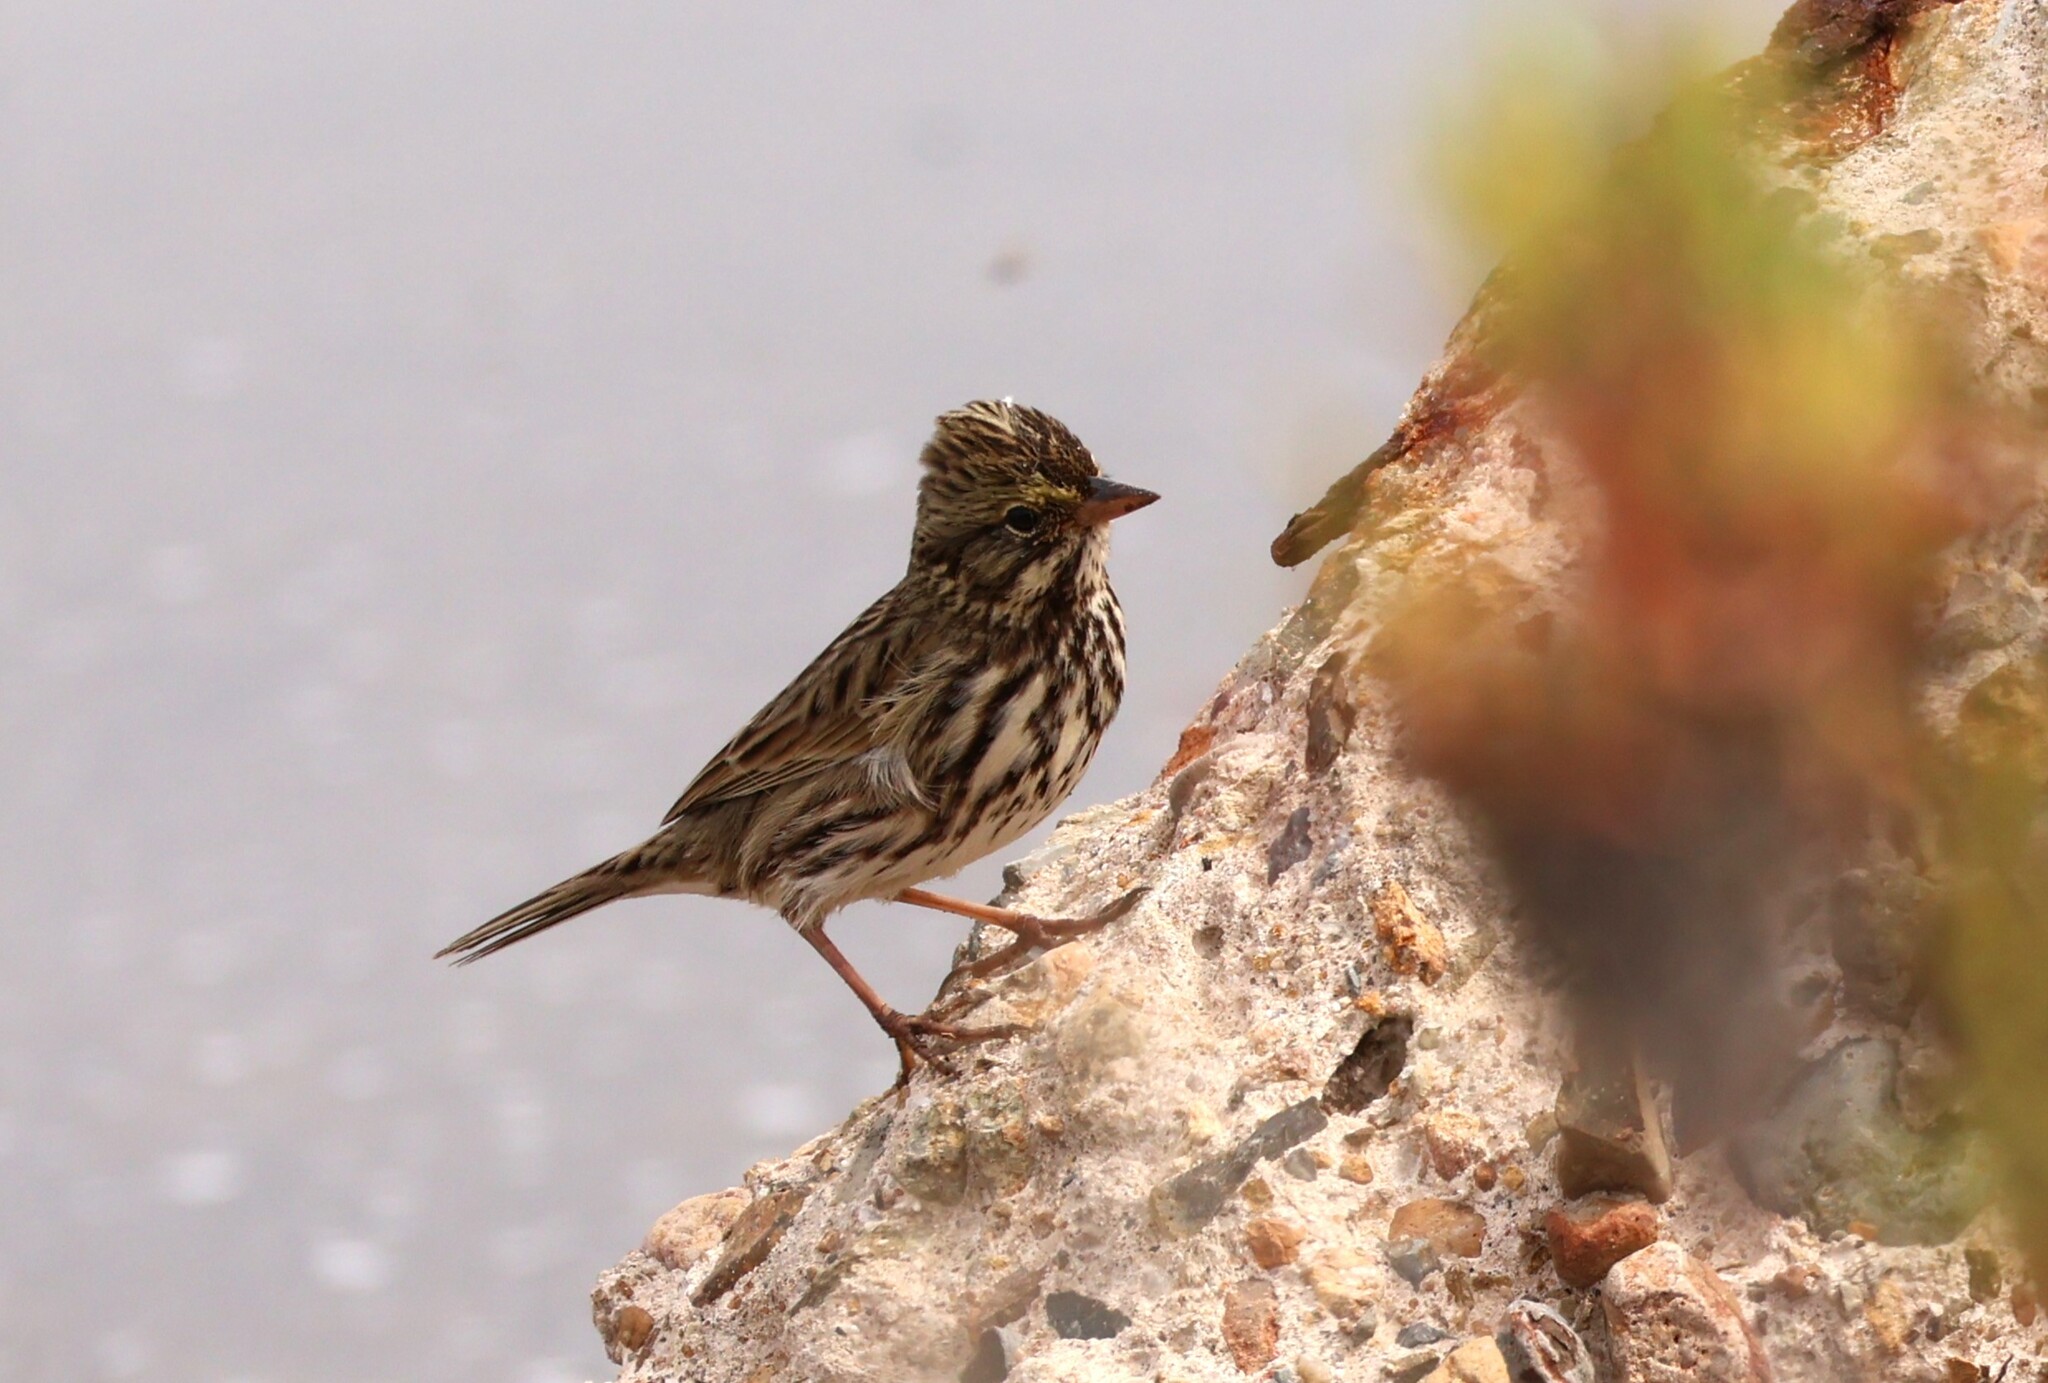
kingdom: Animalia
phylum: Chordata
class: Aves
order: Passeriformes
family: Passerellidae
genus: Passerculus
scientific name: Passerculus sandwichensis
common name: Savannah sparrow
